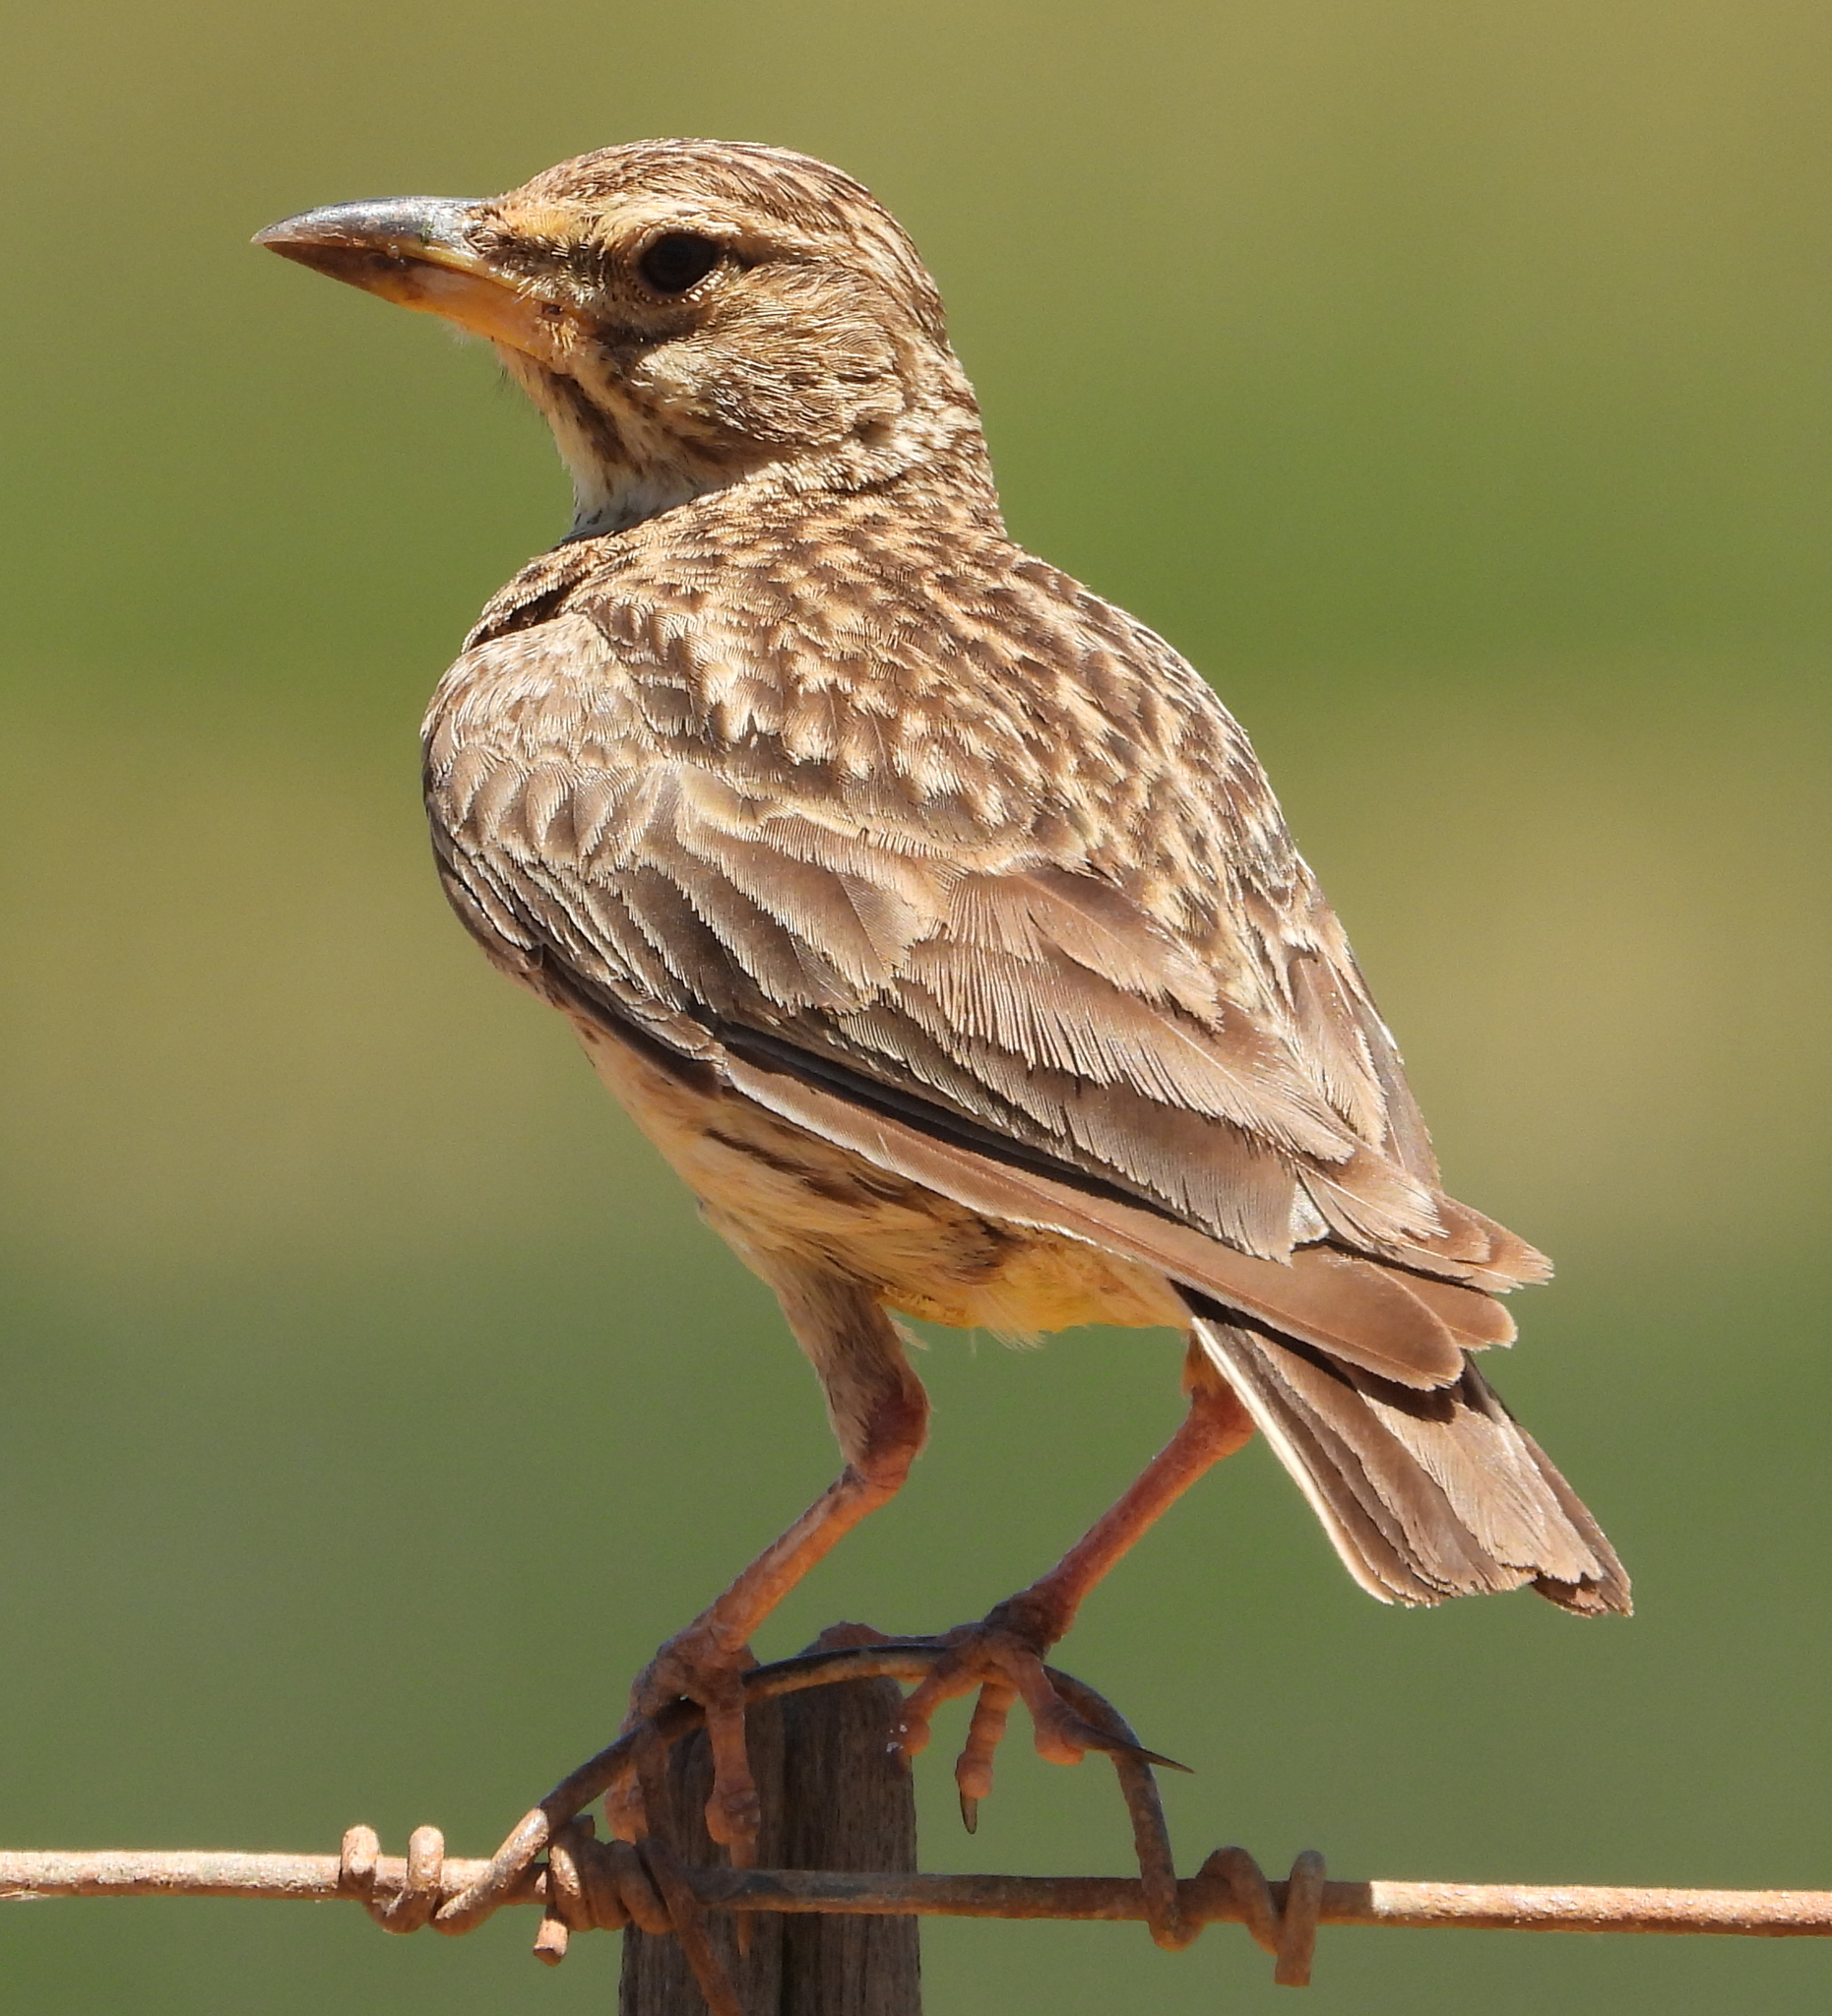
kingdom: Animalia
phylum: Chordata
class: Aves
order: Passeriformes
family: Alaudidae
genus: Galerida
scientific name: Galerida magnirostris
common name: Large-billed lark
